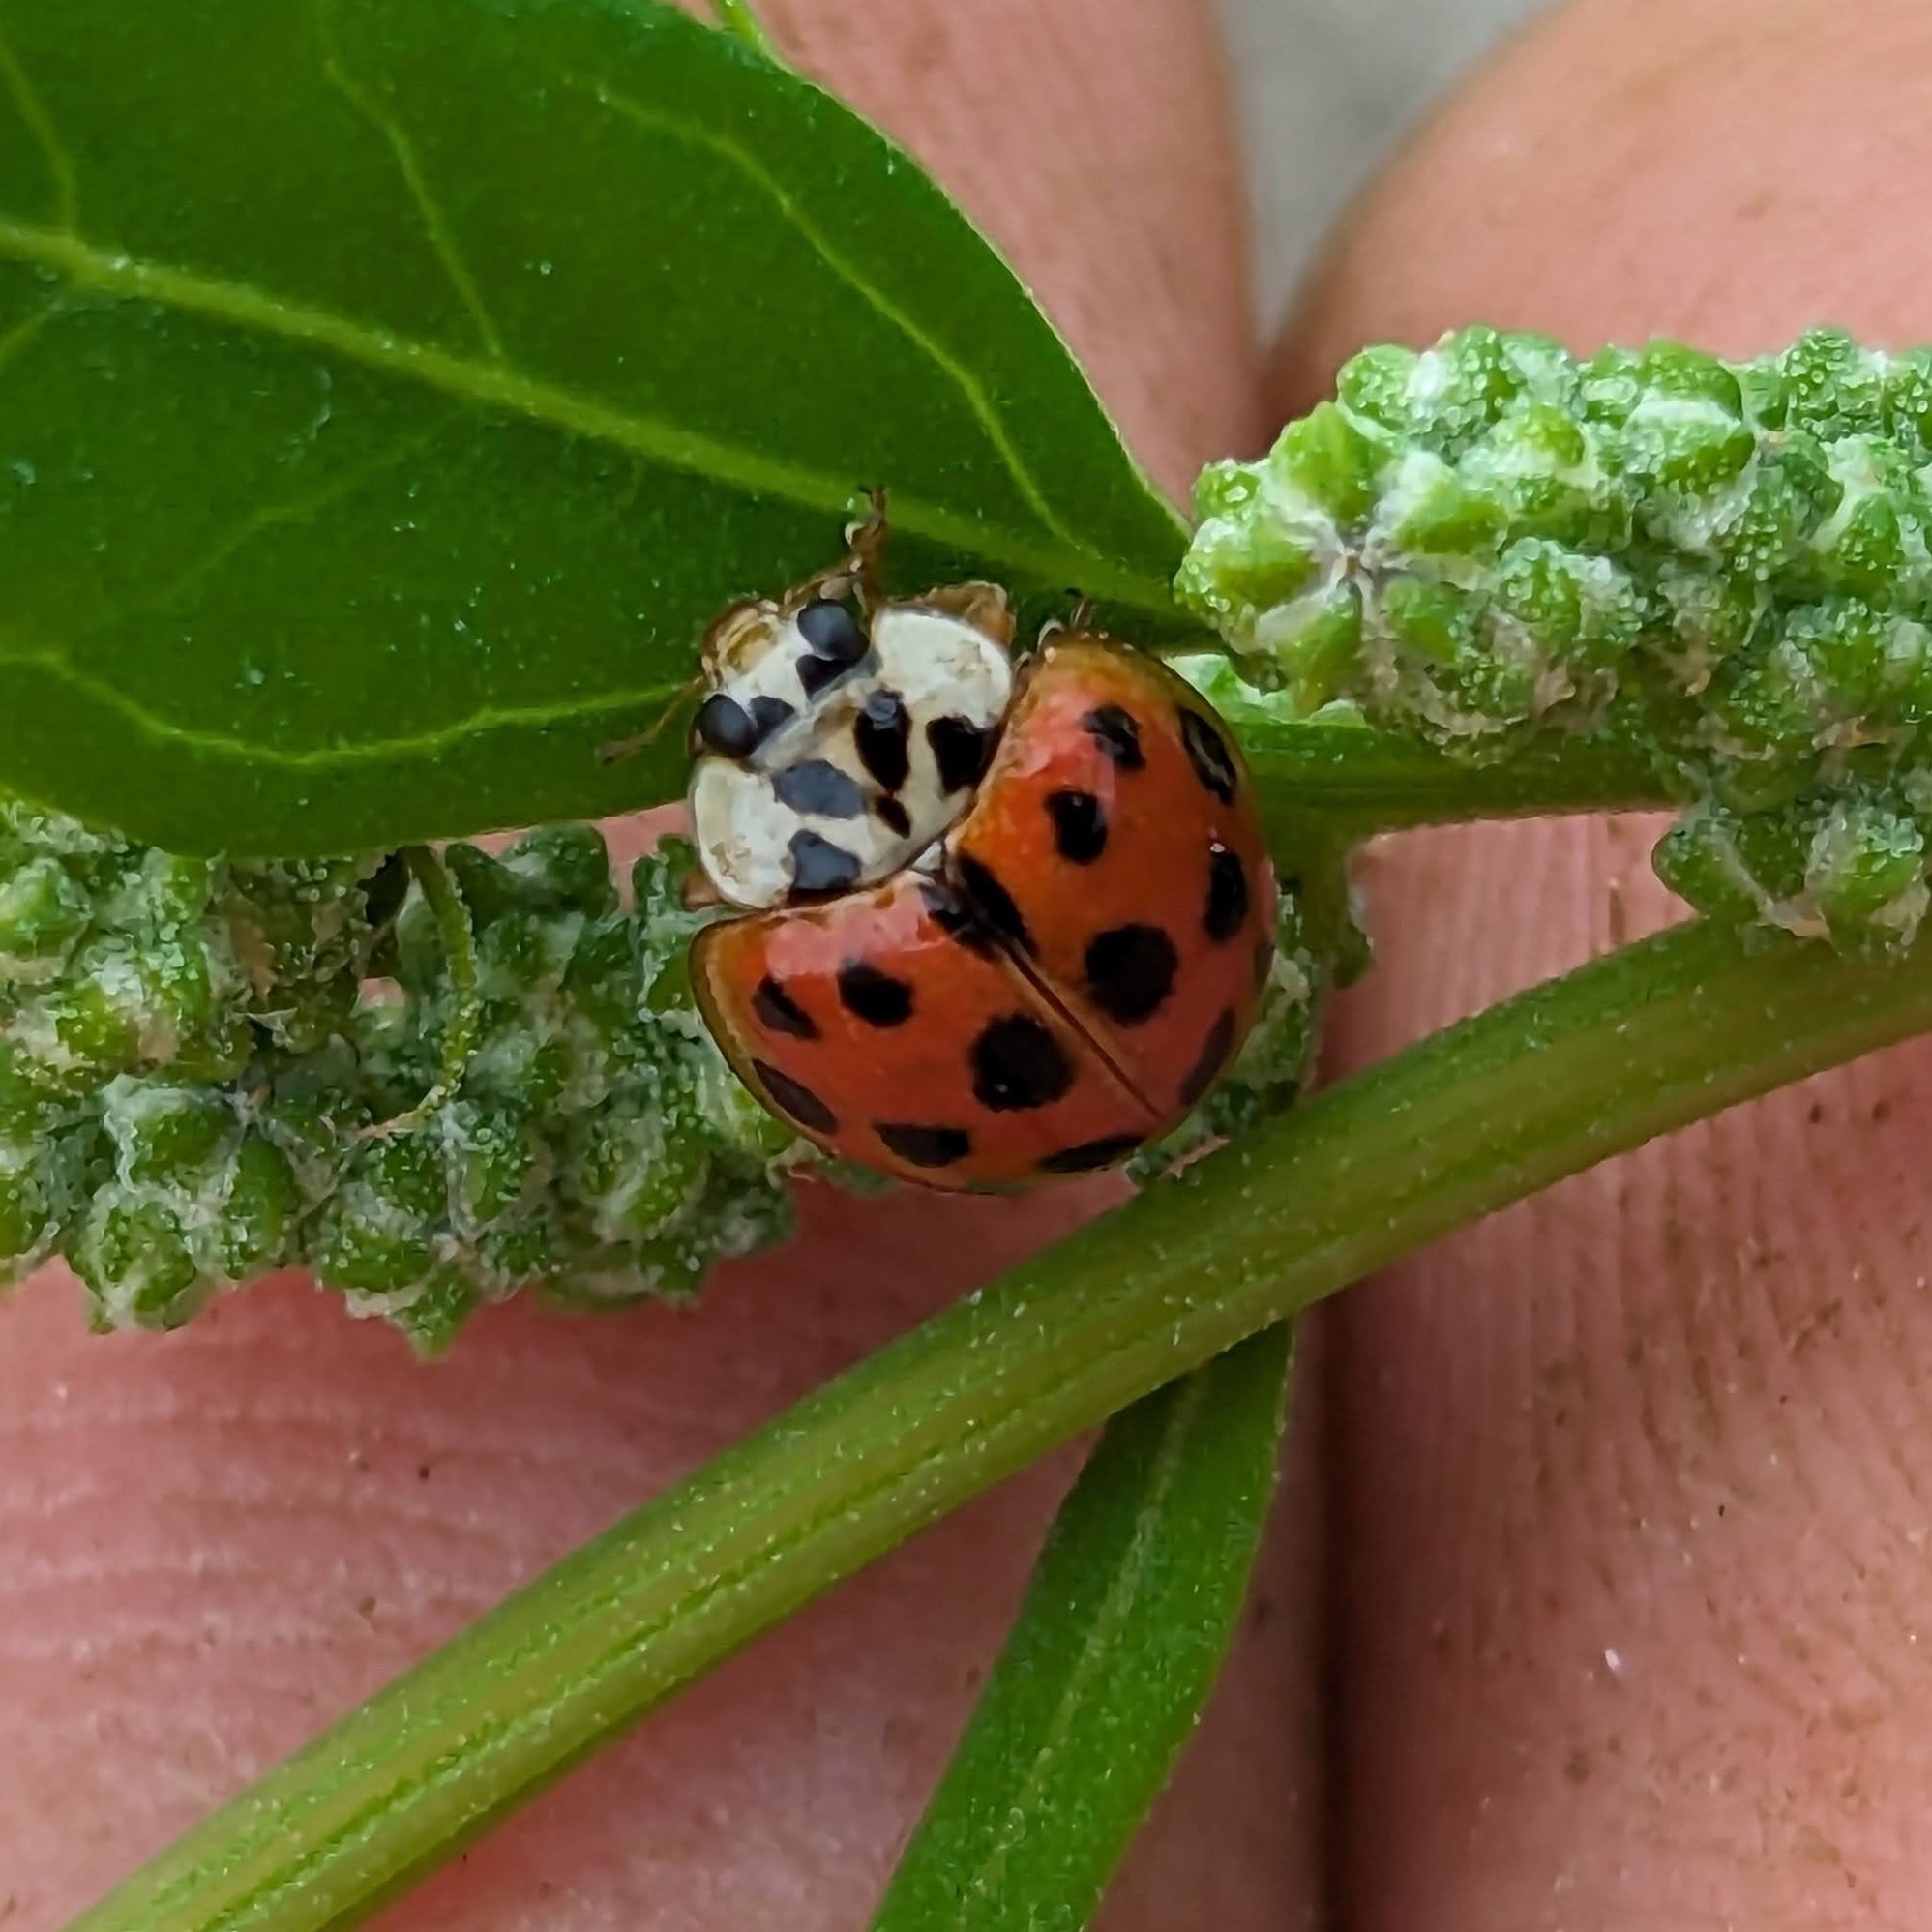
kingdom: Animalia
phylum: Arthropoda
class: Insecta
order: Coleoptera
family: Coccinellidae
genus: Harmonia
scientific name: Harmonia axyridis
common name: Harlequin ladybird
